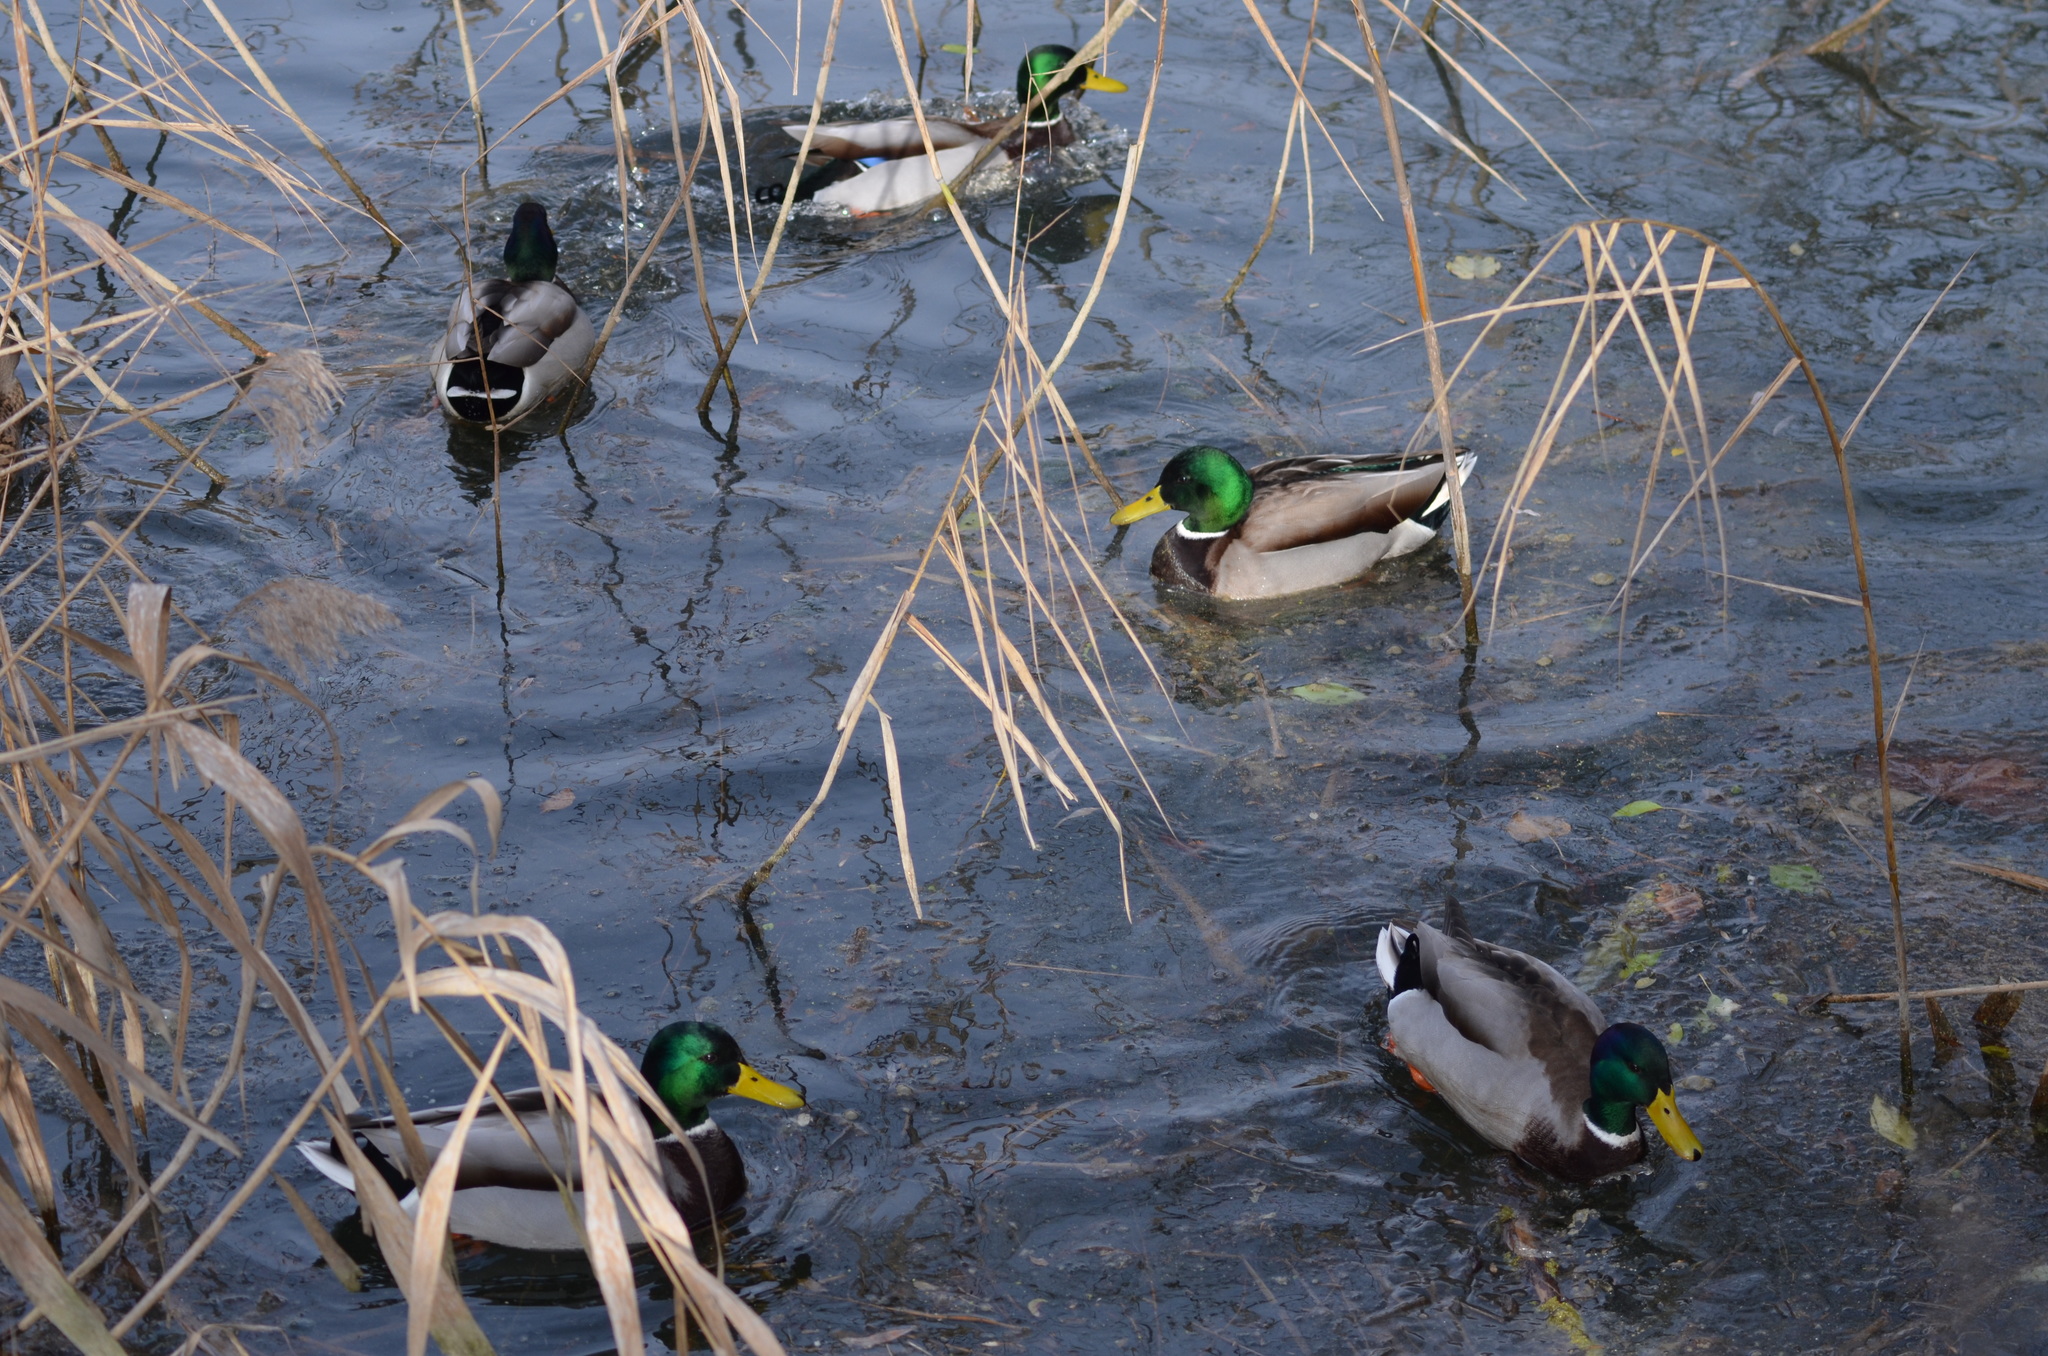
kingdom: Animalia
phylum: Chordata
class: Aves
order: Anseriformes
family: Anatidae
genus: Anas
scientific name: Anas platyrhynchos
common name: Mallard
